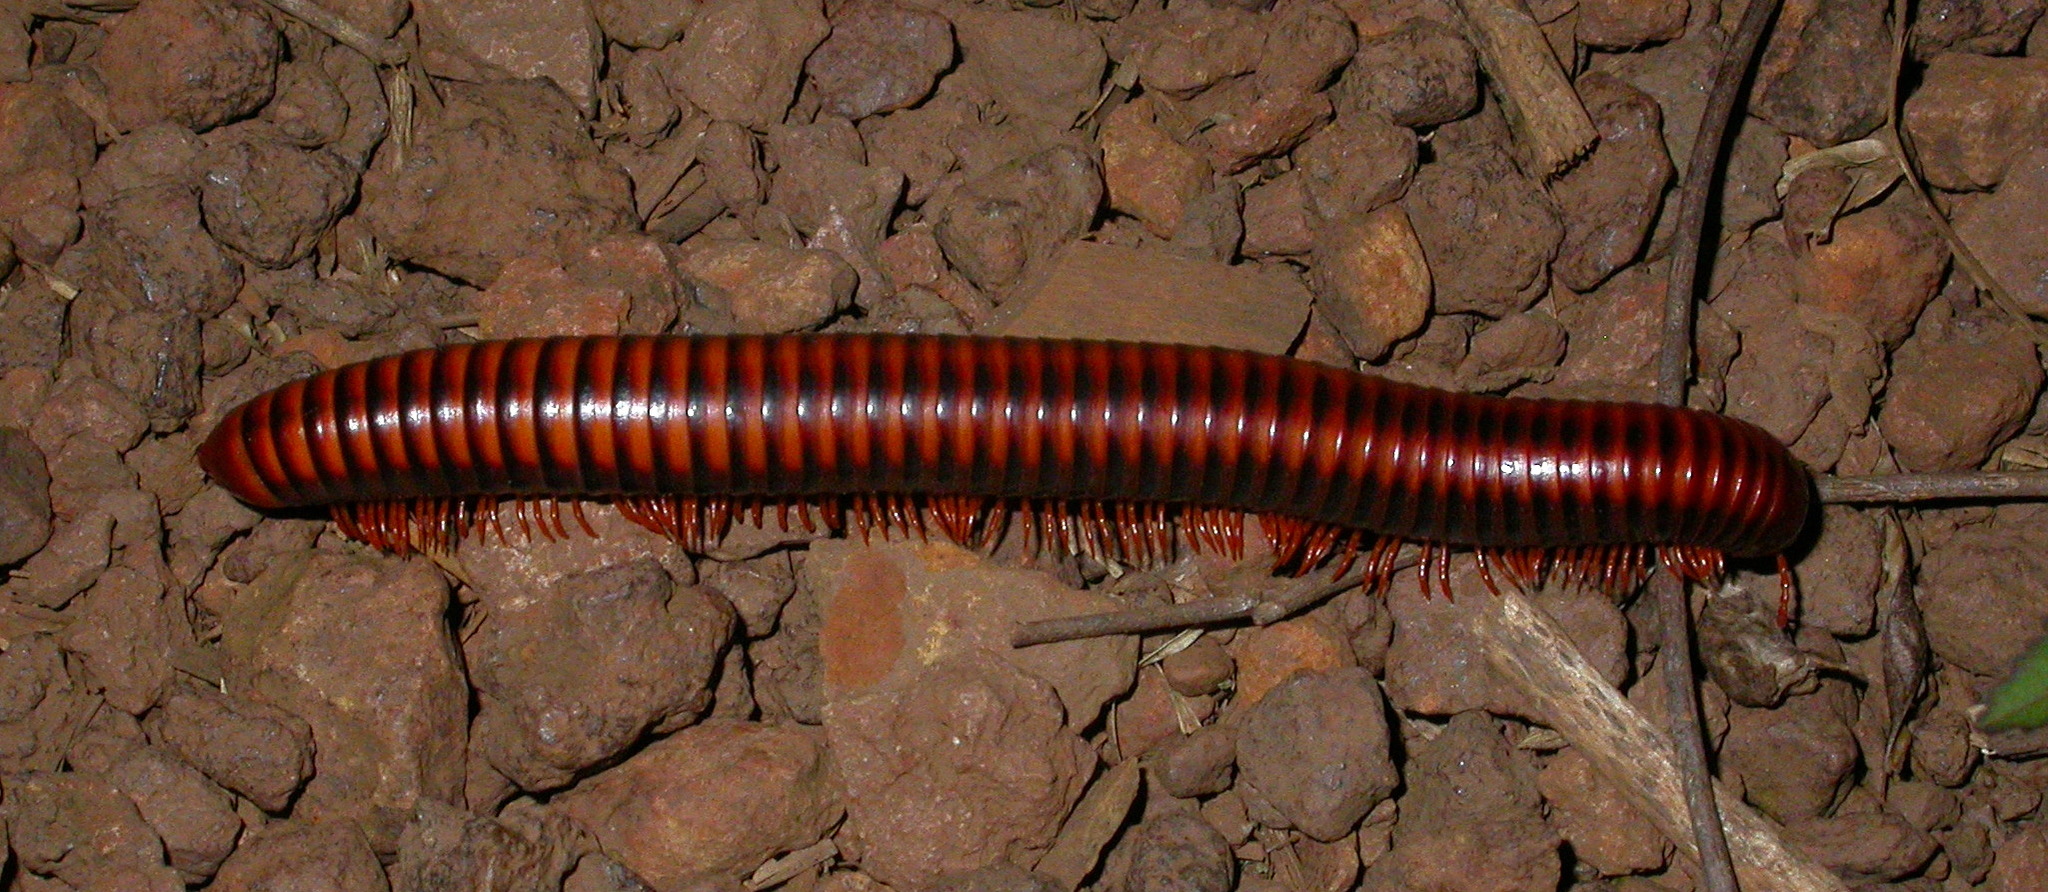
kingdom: Animalia
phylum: Arthropoda
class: Diplopoda
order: Spirobolida
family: Pachybolidae
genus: Aphistogoniulus
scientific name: Aphistogoniulus jeekeli
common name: Jeekel's fire-millipede
